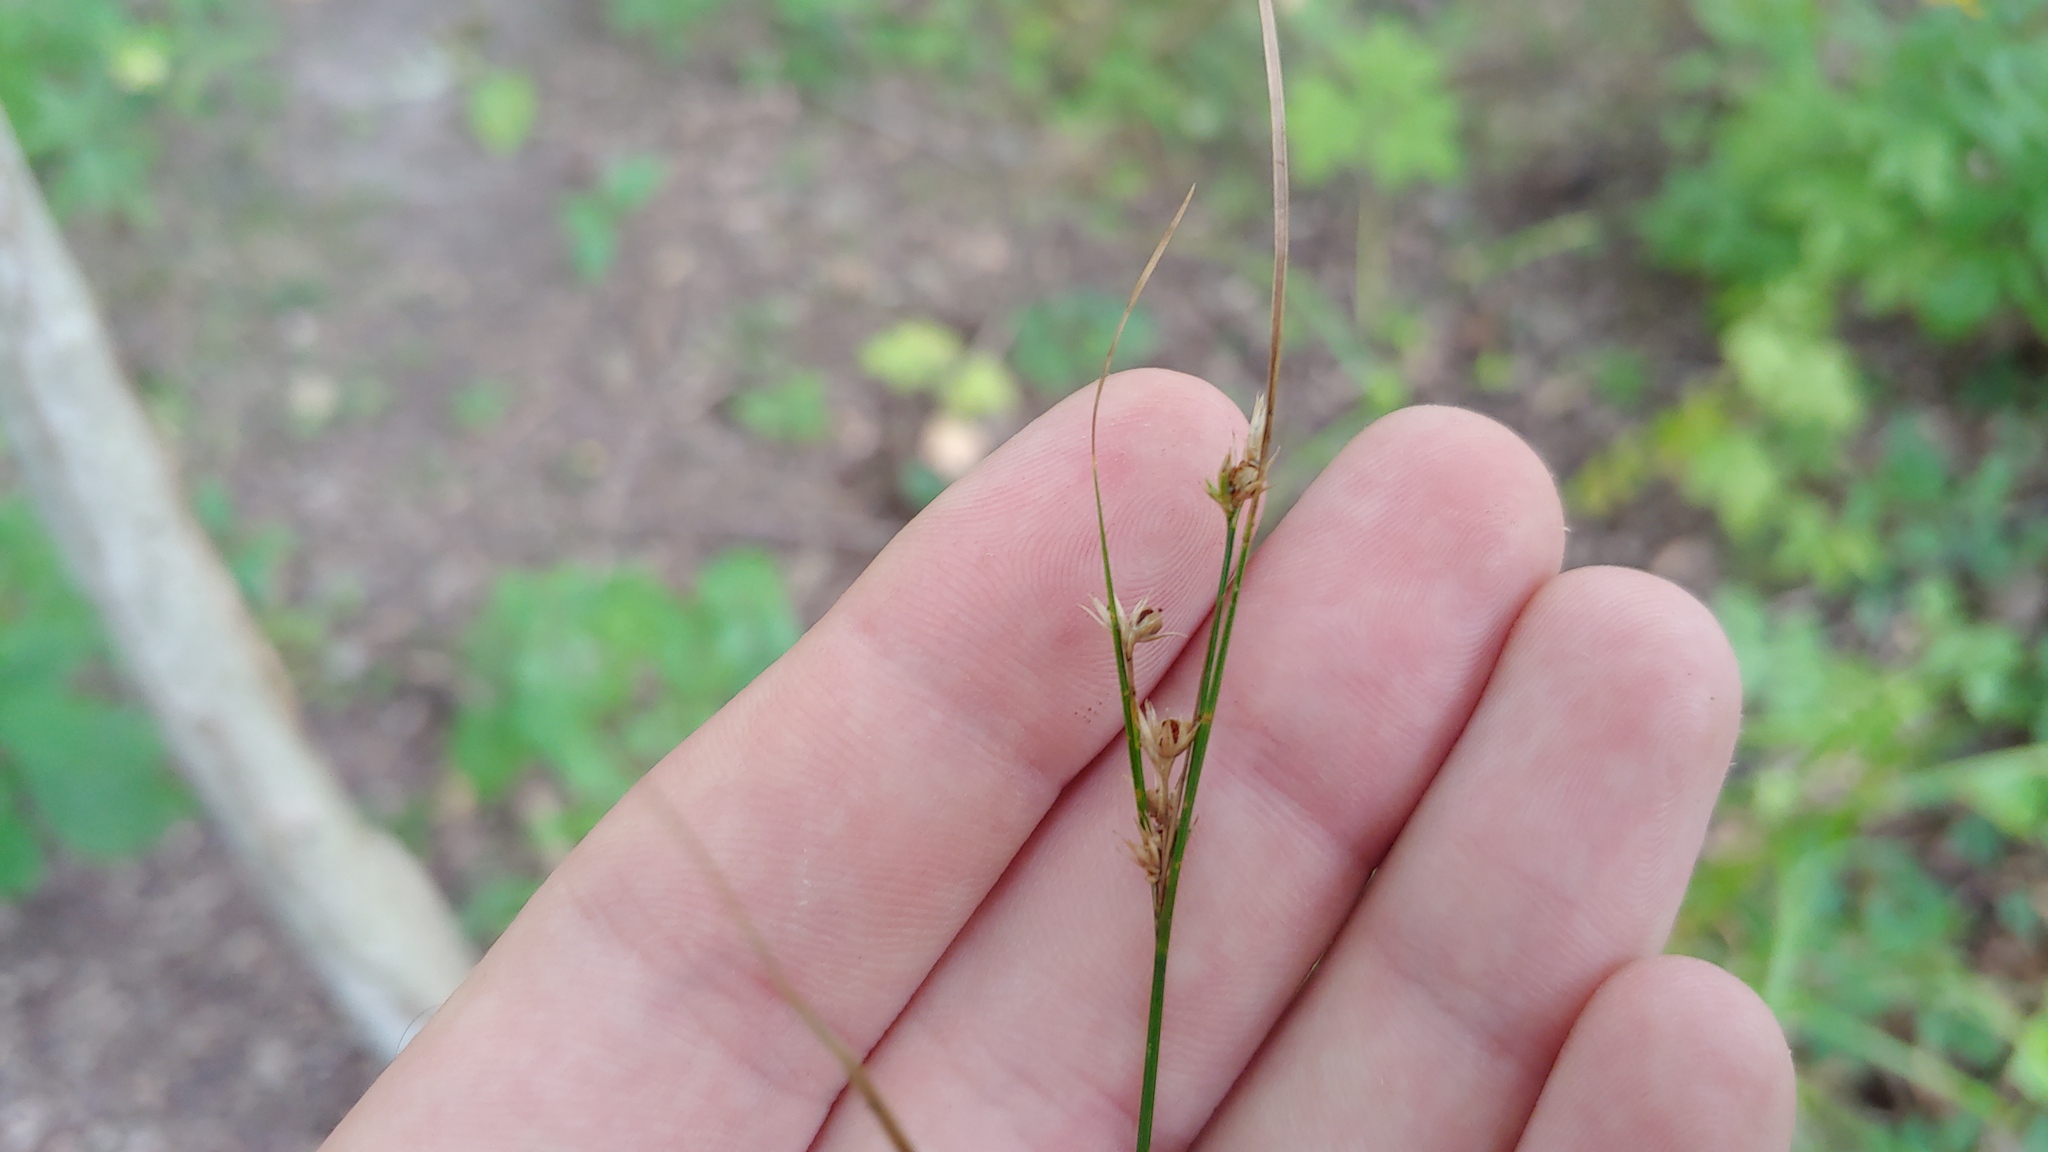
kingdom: Plantae
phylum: Tracheophyta
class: Liliopsida
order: Poales
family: Juncaceae
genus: Juncus
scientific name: Juncus tenuis
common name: Slender rush
